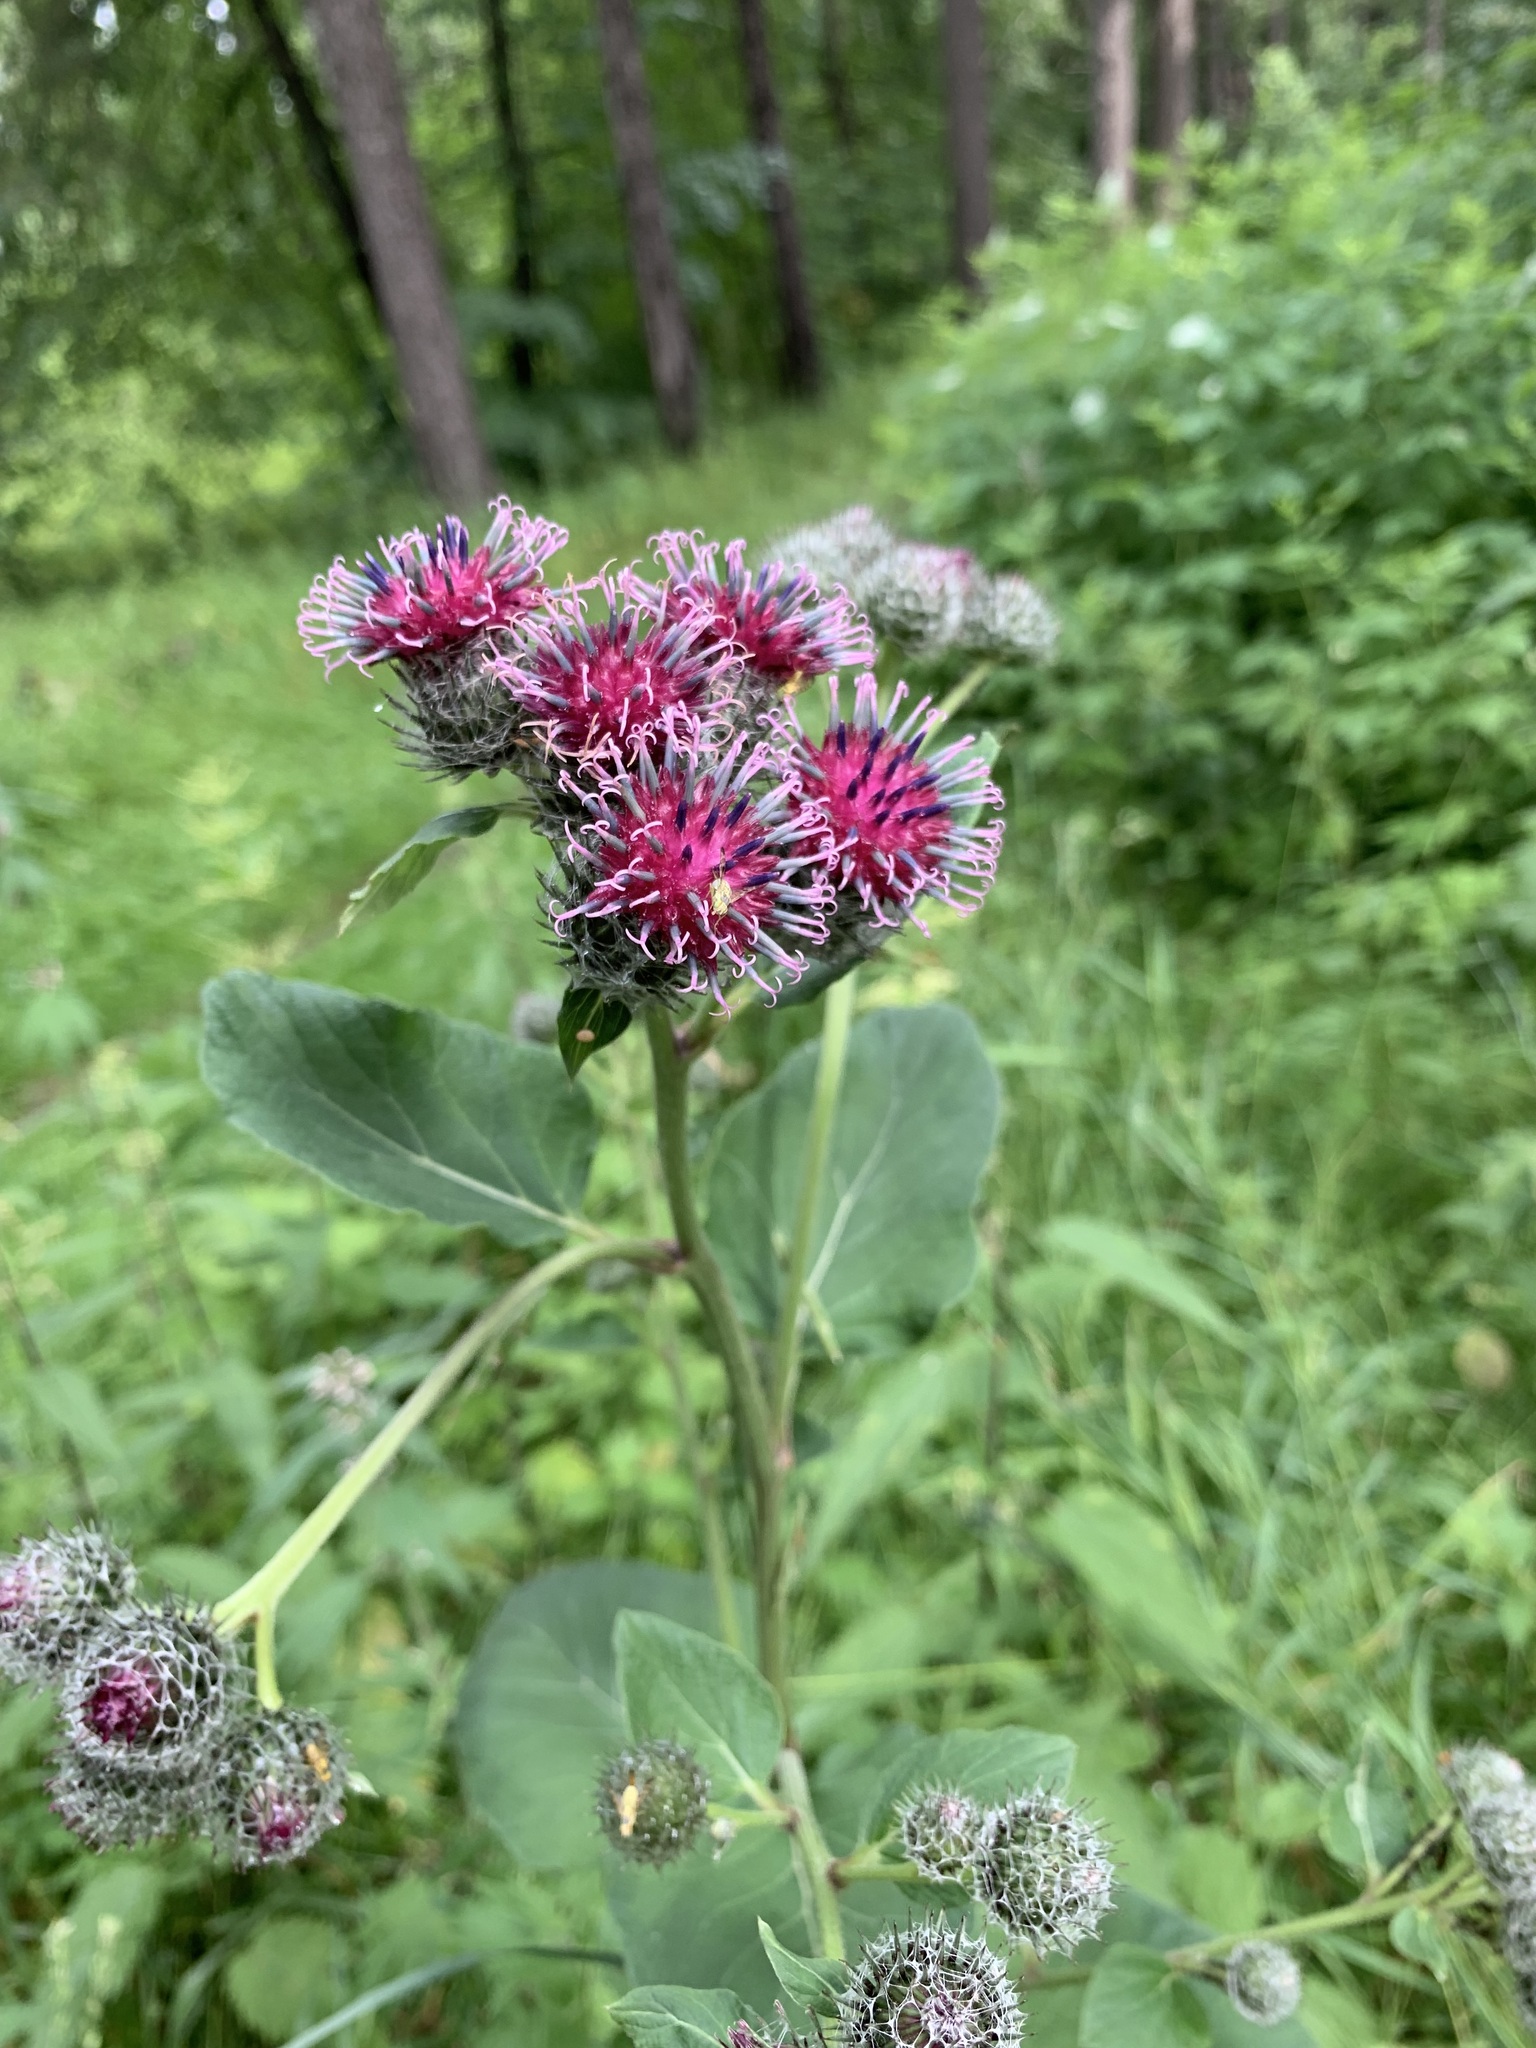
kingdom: Plantae
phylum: Tracheophyta
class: Magnoliopsida
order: Asterales
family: Asteraceae
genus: Arctium
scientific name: Arctium tomentosum
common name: Woolly burdock
